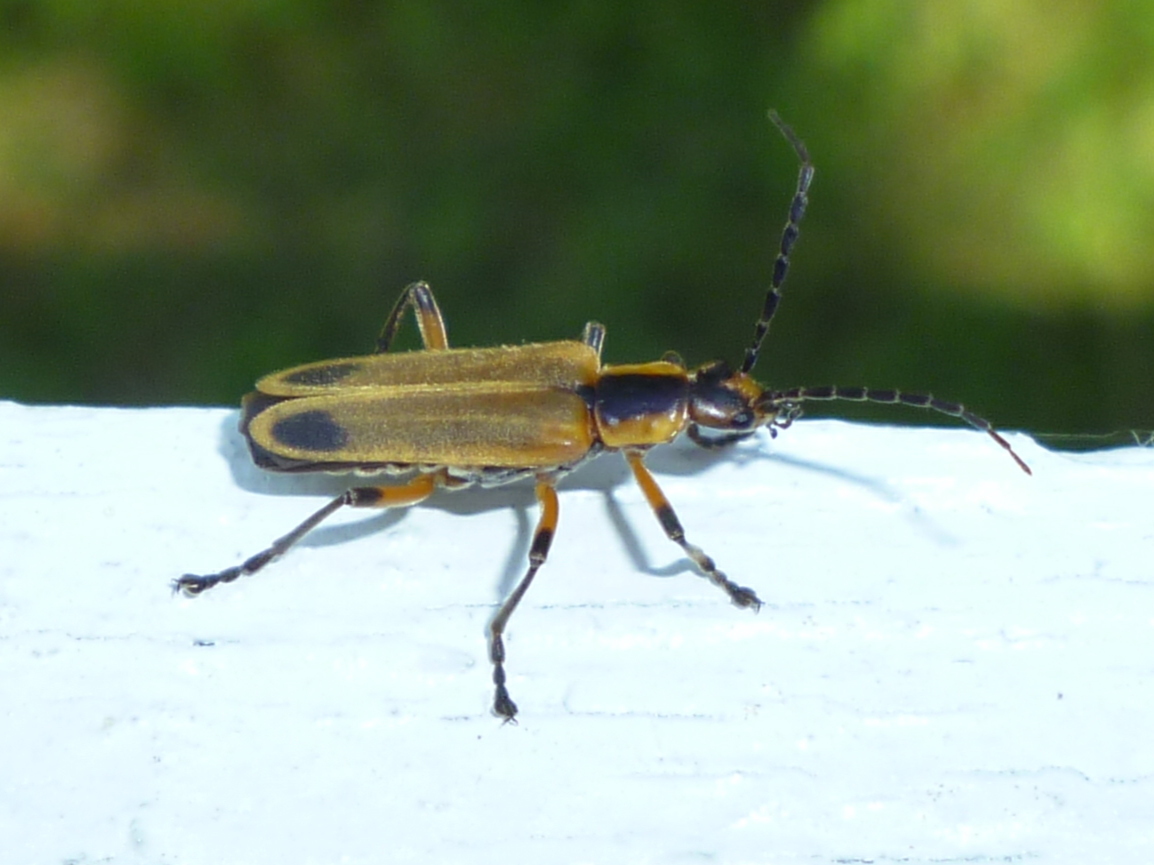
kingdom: Animalia
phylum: Arthropoda
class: Insecta
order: Coleoptera
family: Cantharidae
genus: Chauliognathus
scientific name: Chauliognathus marginatus
